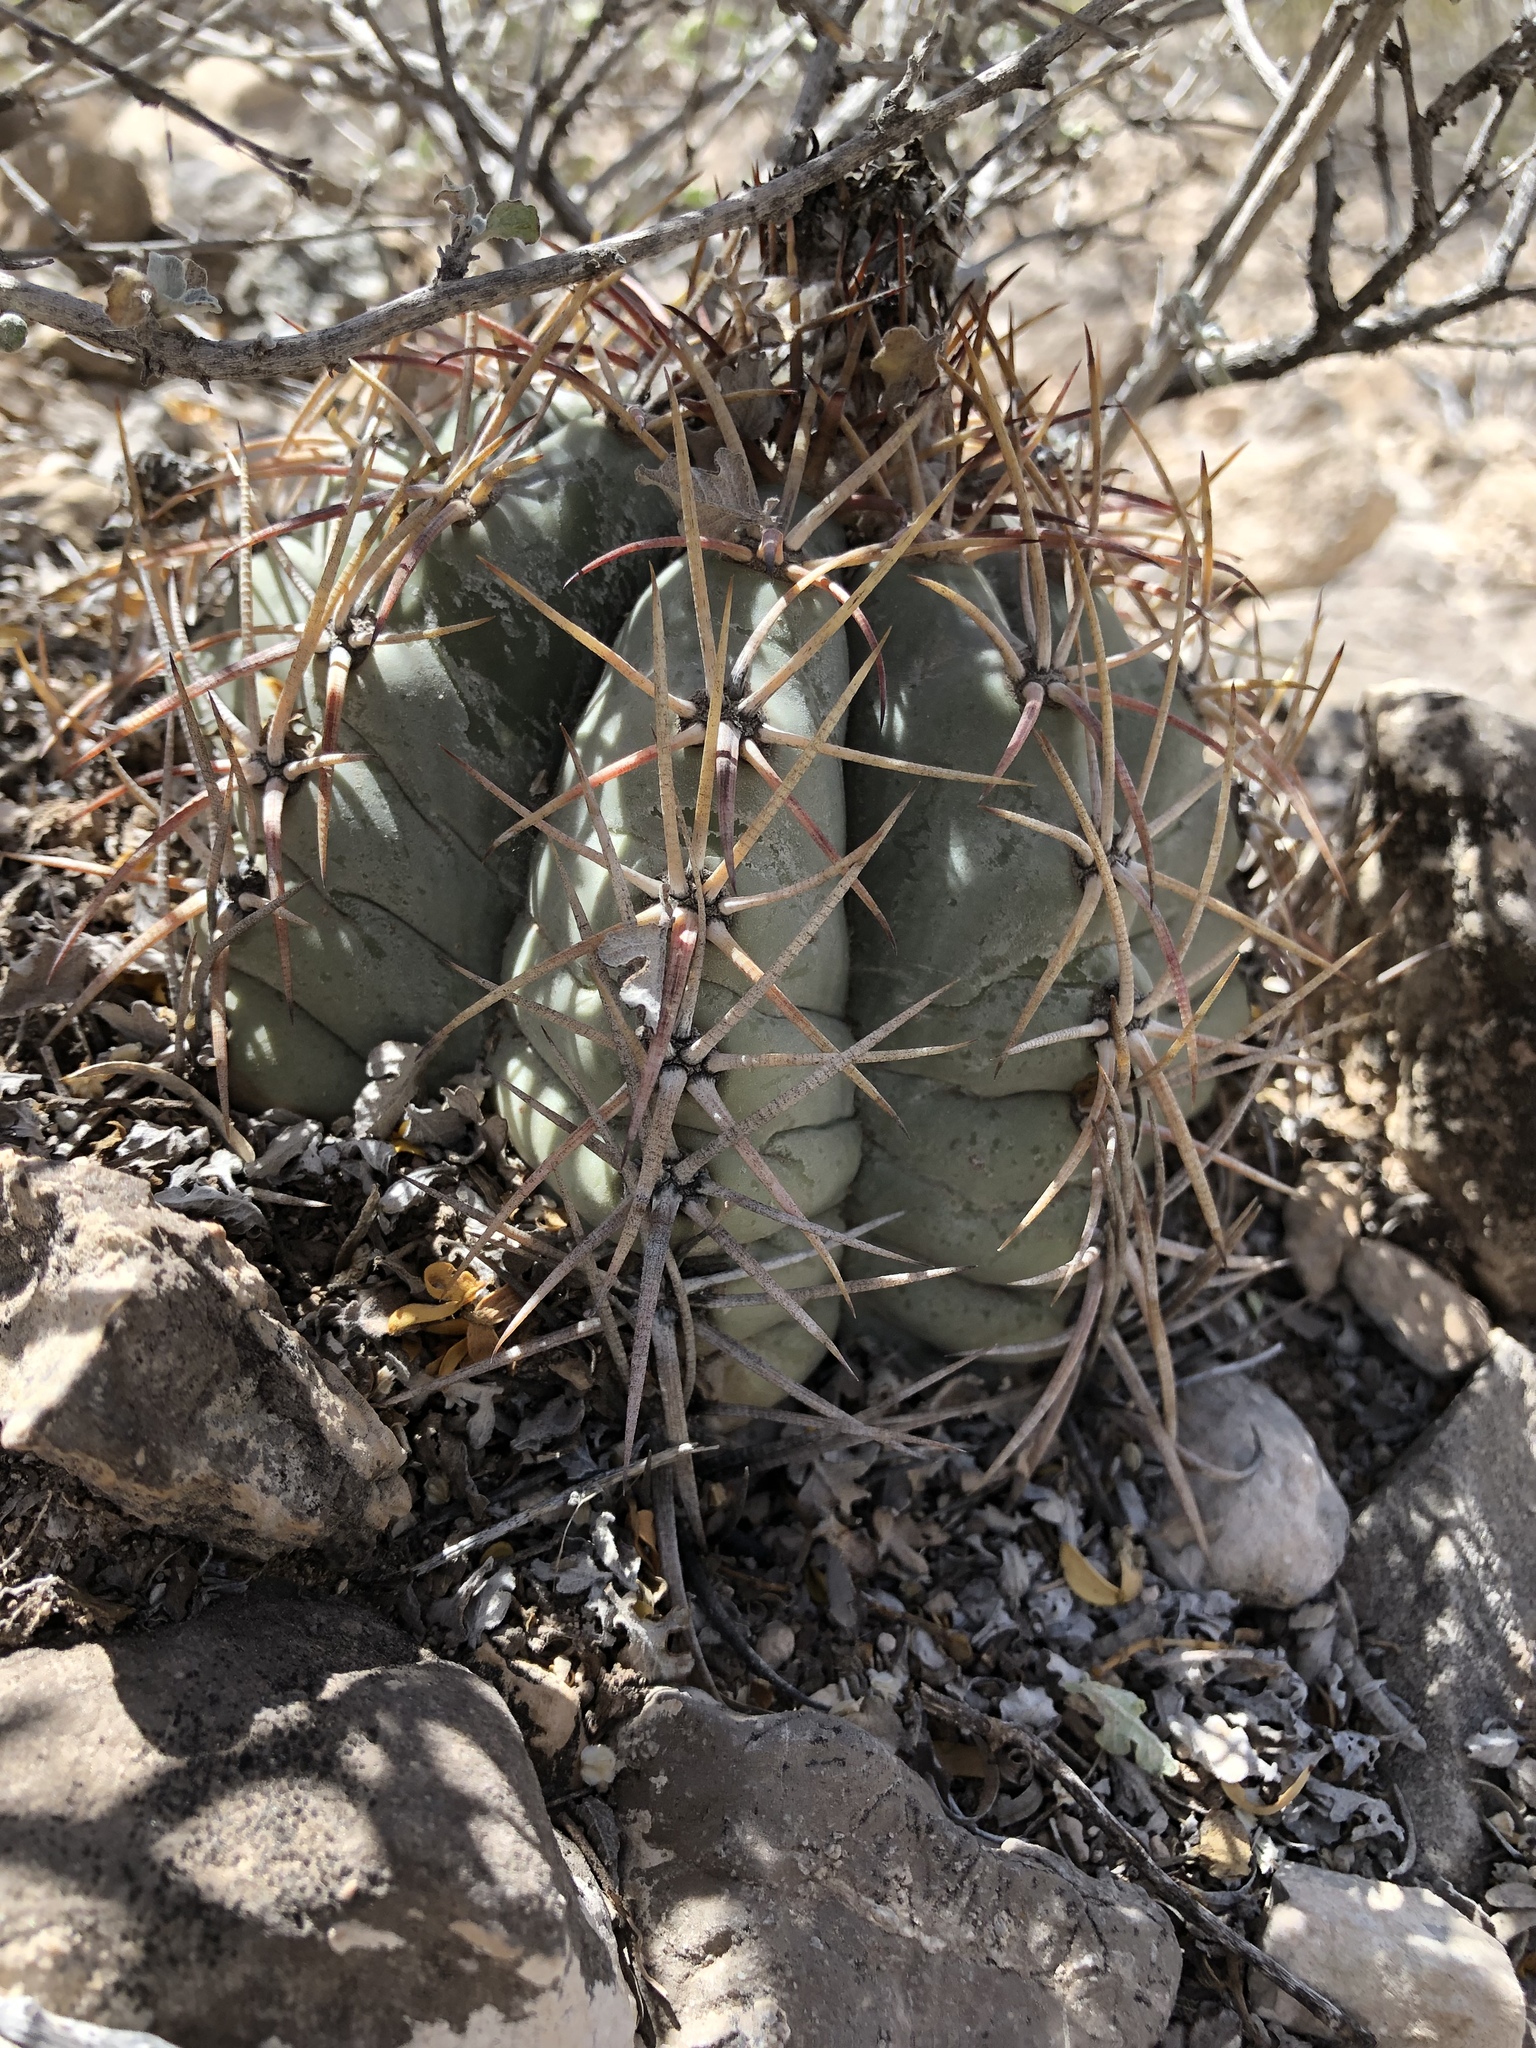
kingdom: Plantae
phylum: Tracheophyta
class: Magnoliopsida
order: Caryophyllales
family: Cactaceae
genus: Echinocactus
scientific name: Echinocactus horizonthalonius
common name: Devilshead
